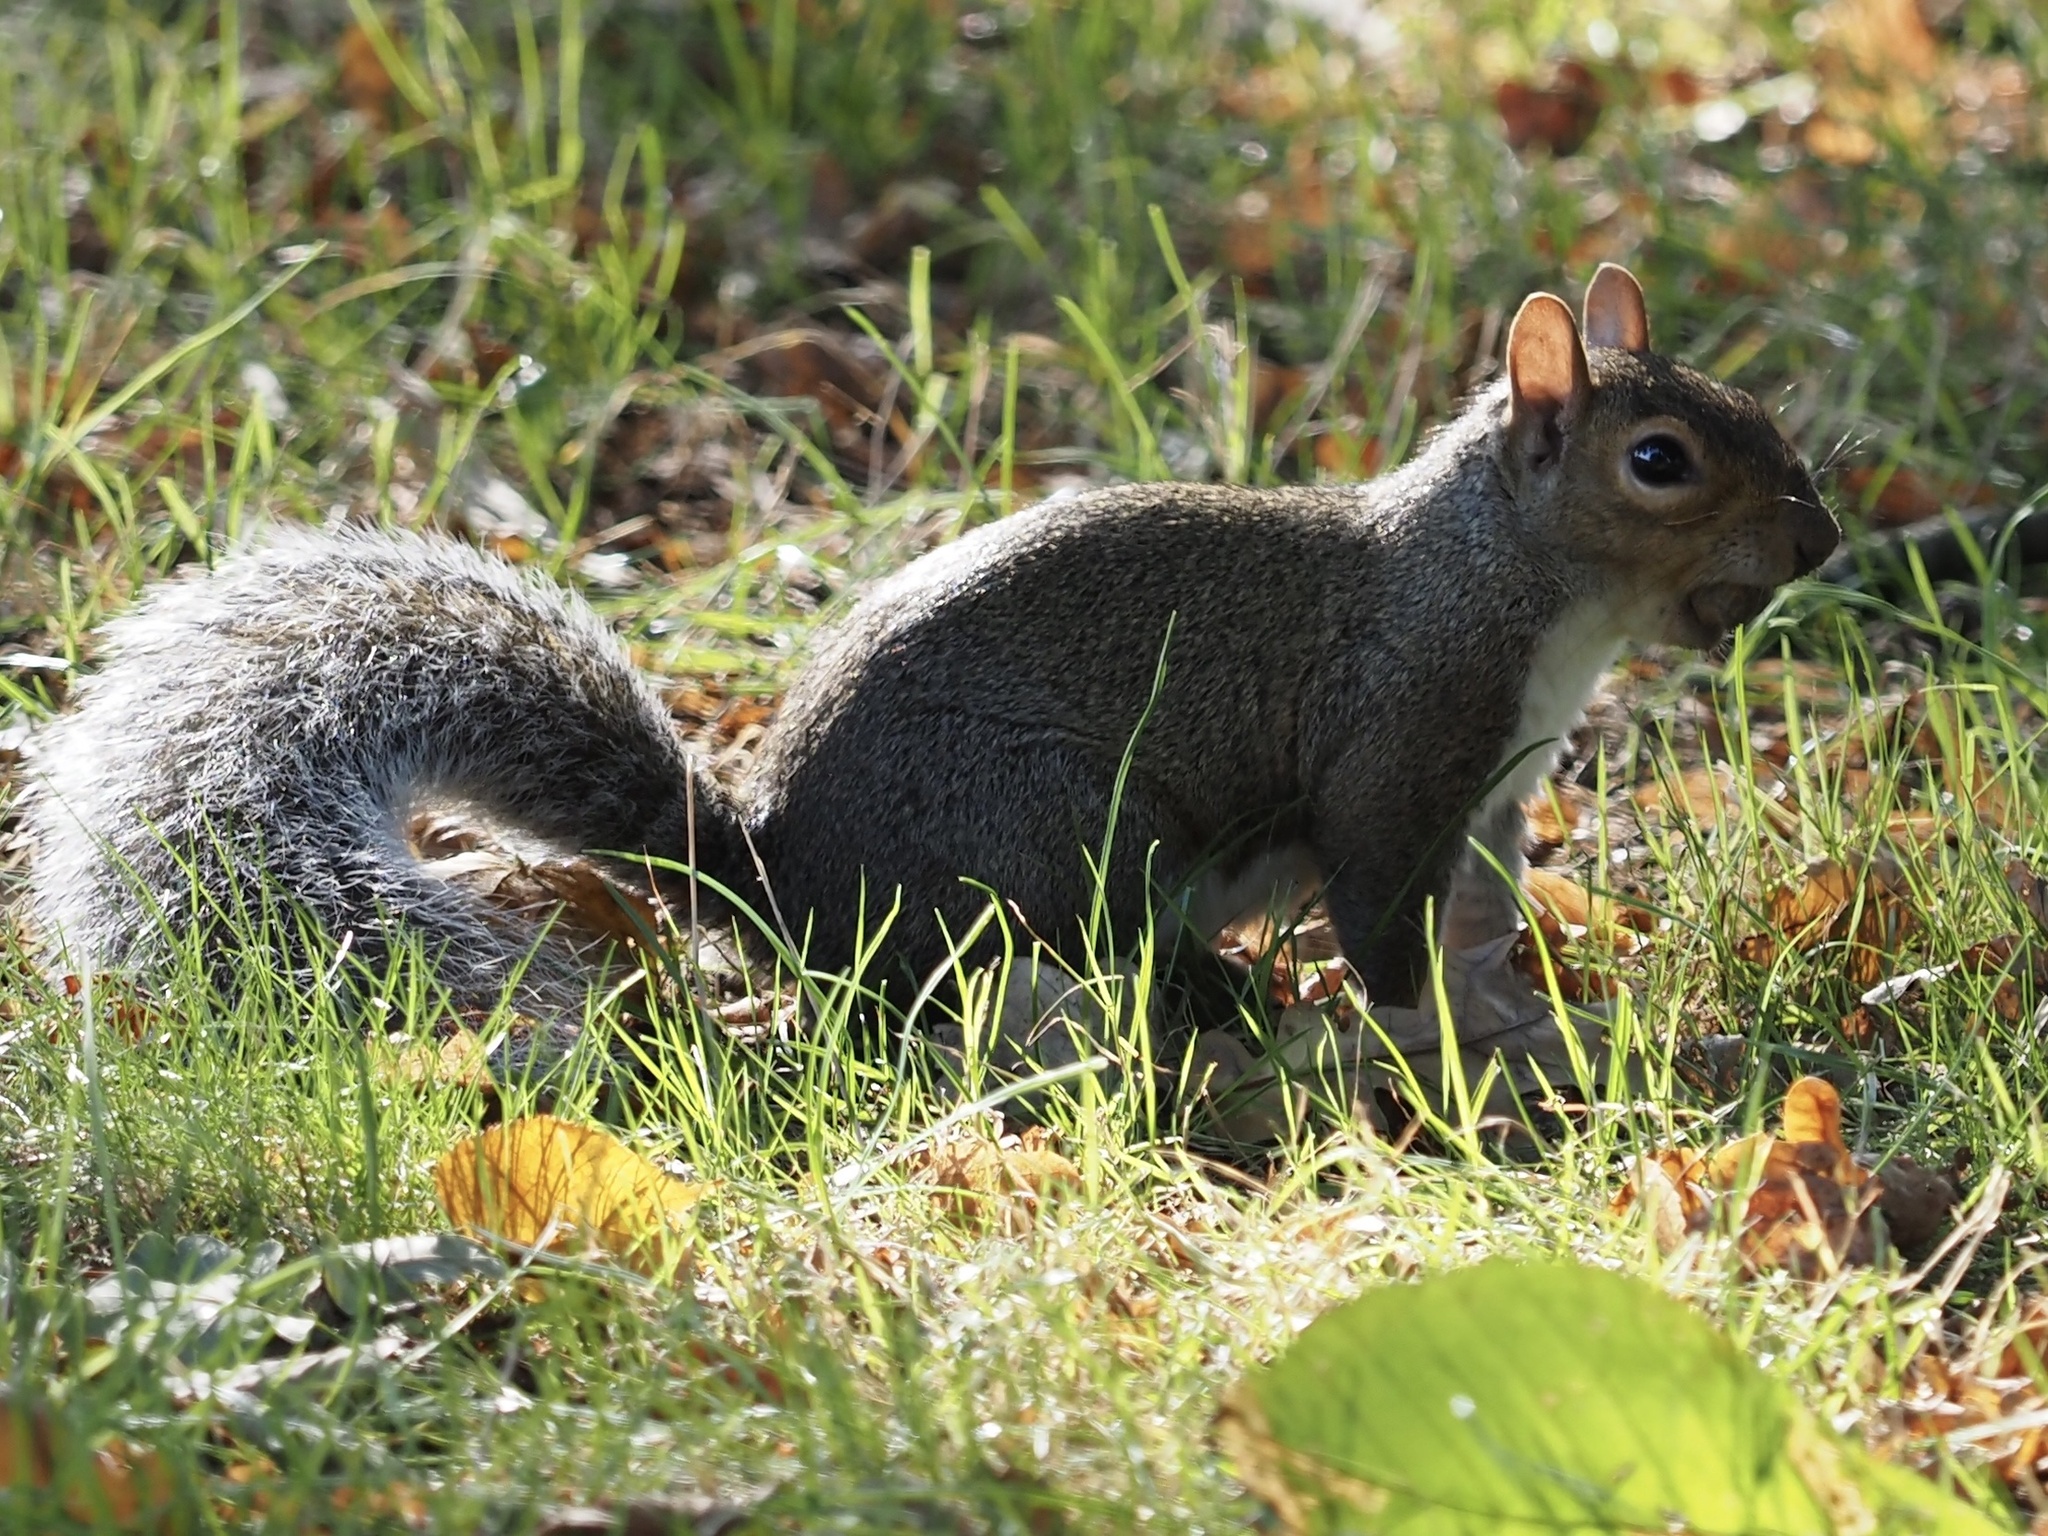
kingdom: Animalia
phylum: Chordata
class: Mammalia
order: Rodentia
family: Sciuridae
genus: Sciurus
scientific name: Sciurus carolinensis
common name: Eastern gray squirrel
